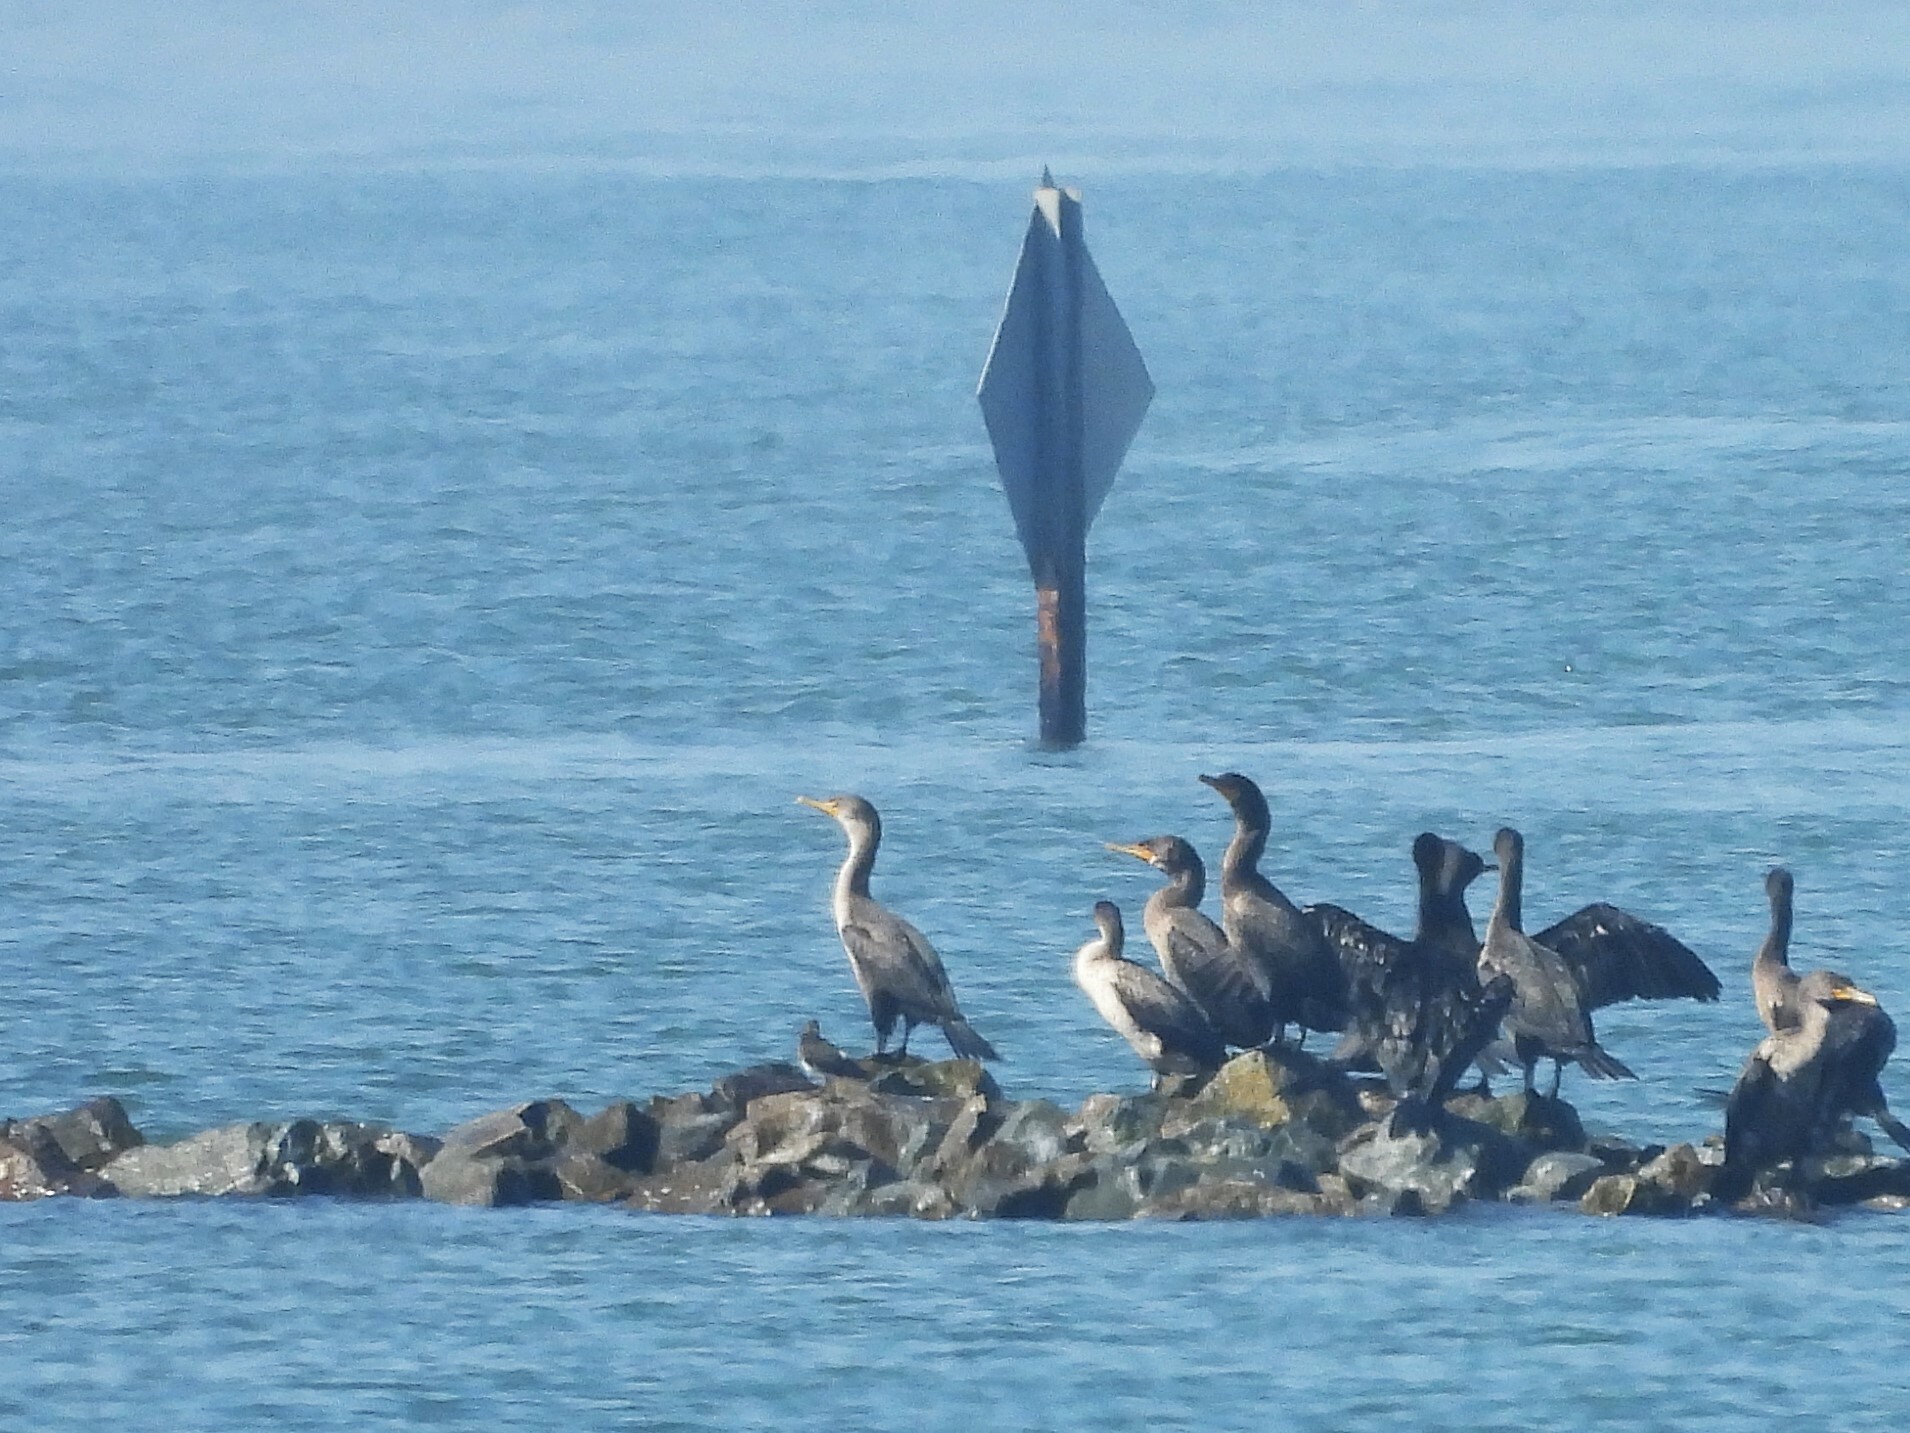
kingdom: Animalia
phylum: Chordata
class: Aves
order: Suliformes
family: Phalacrocoracidae
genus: Phalacrocorax
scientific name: Phalacrocorax auritus
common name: Double-crested cormorant
